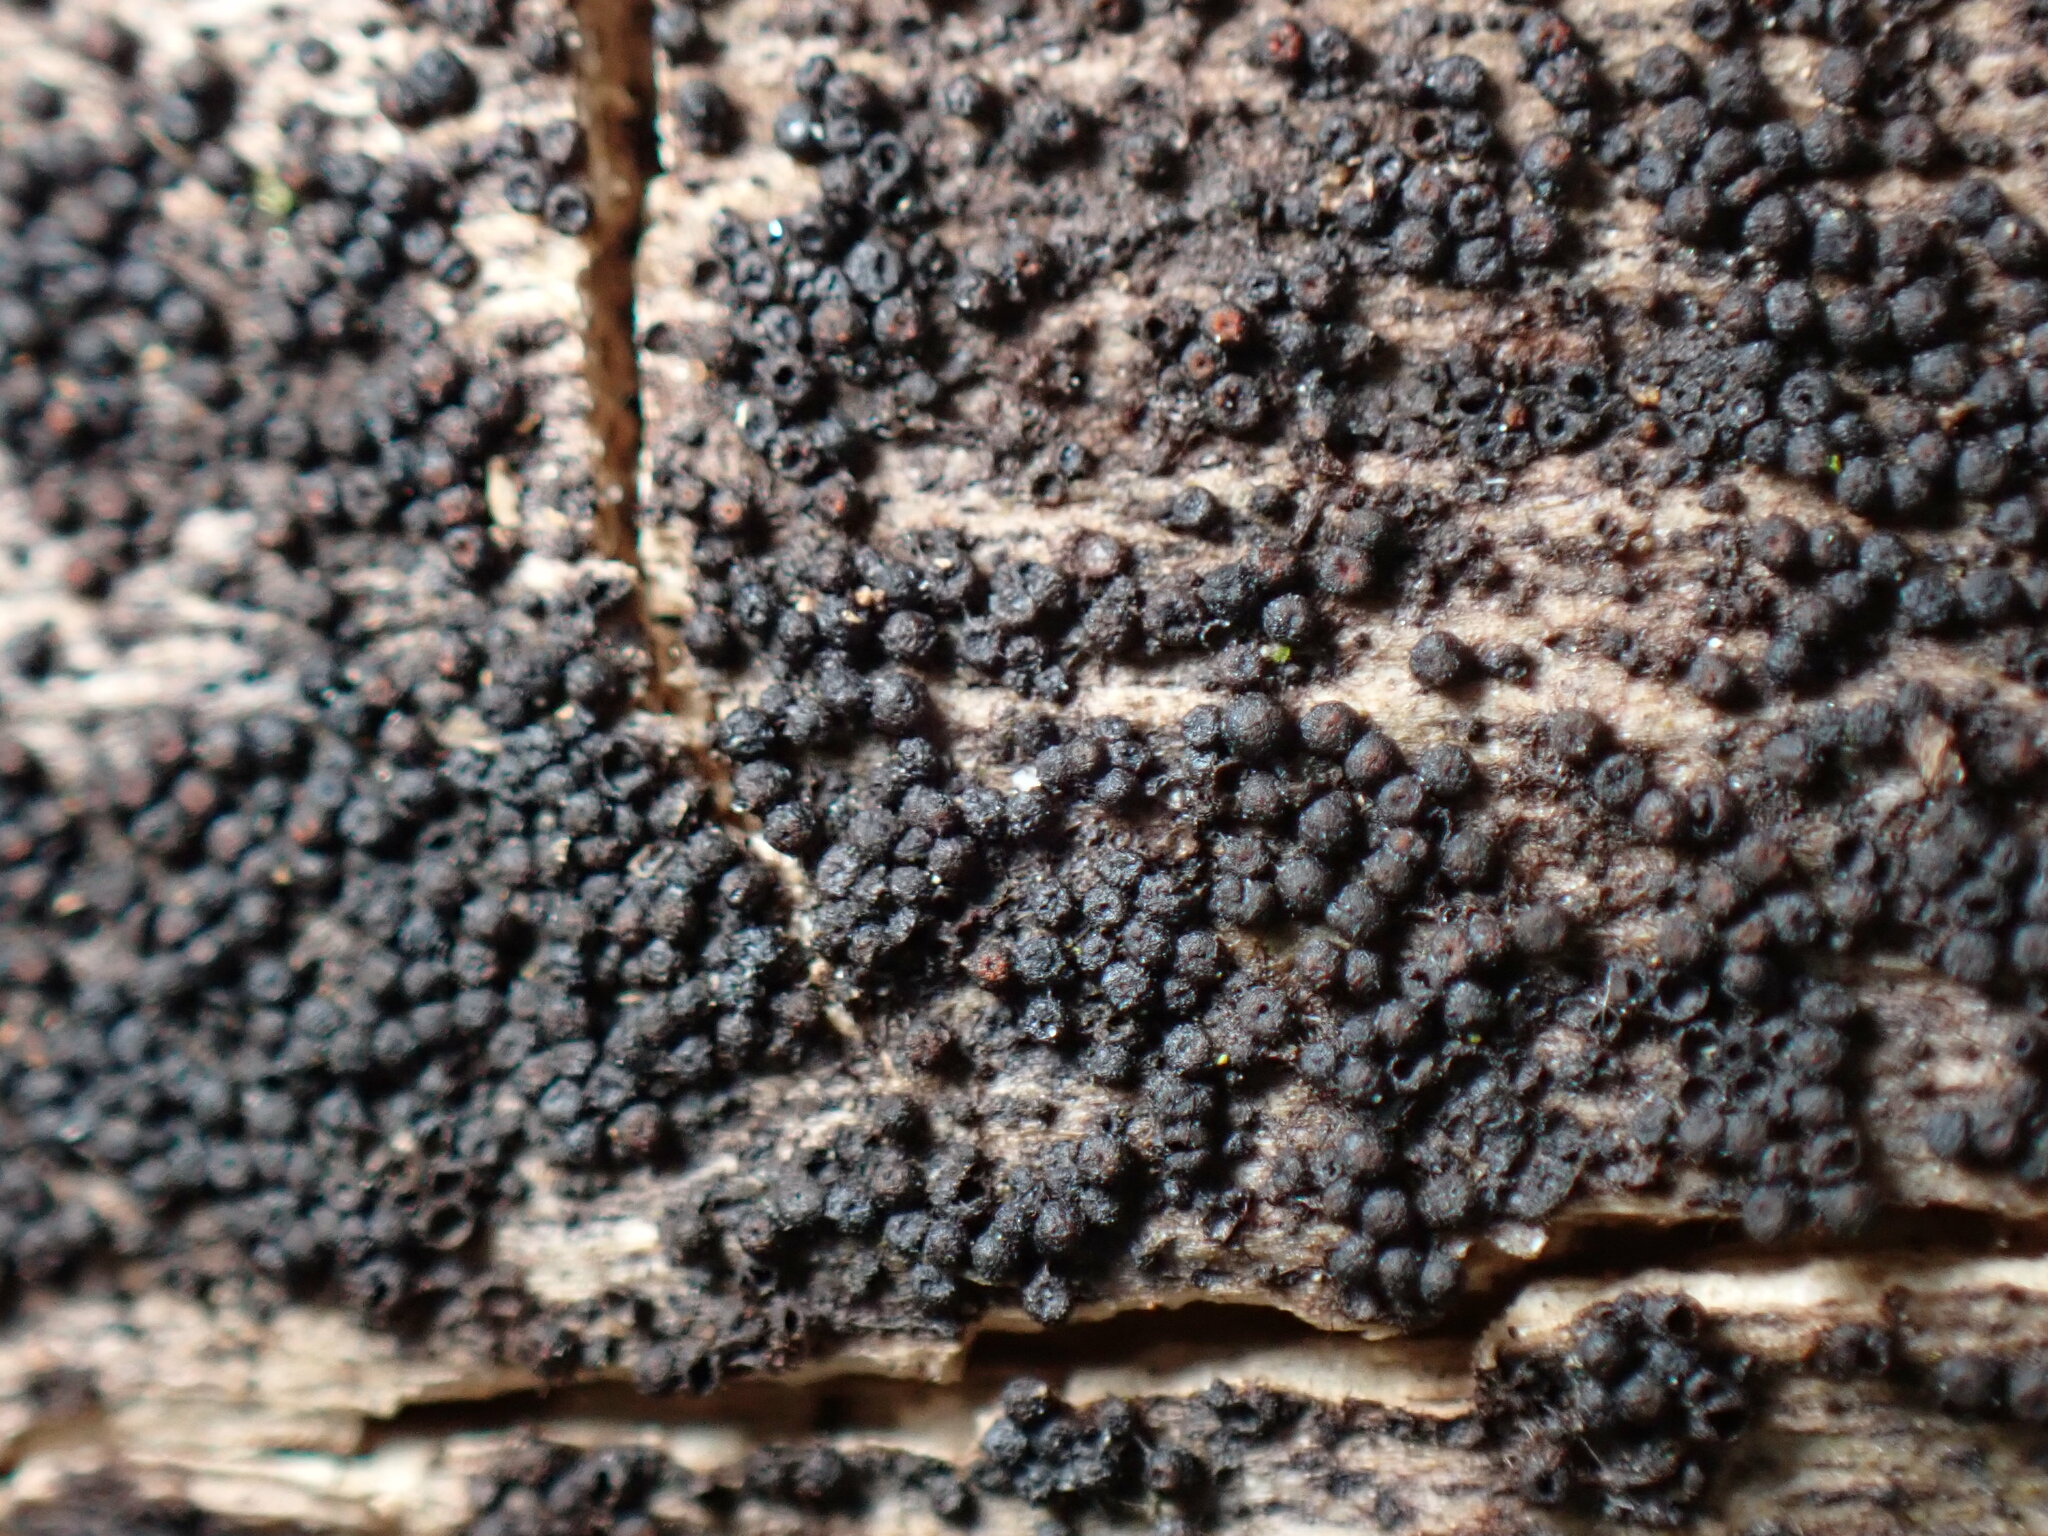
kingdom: Fungi
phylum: Ascomycota
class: Dothideomycetes
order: Pleosporales
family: Melanommataceae
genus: Byssosphaeria
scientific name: Byssosphaeria rhodomphala
